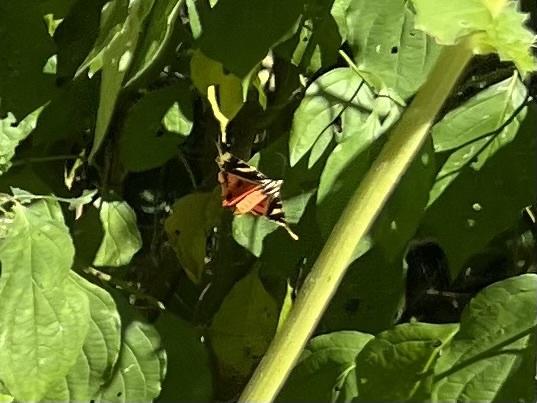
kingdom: Animalia
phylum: Arthropoda
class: Insecta
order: Lepidoptera
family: Erebidae
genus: Euplagia
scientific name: Euplagia quadripunctaria
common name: Jersey tiger
